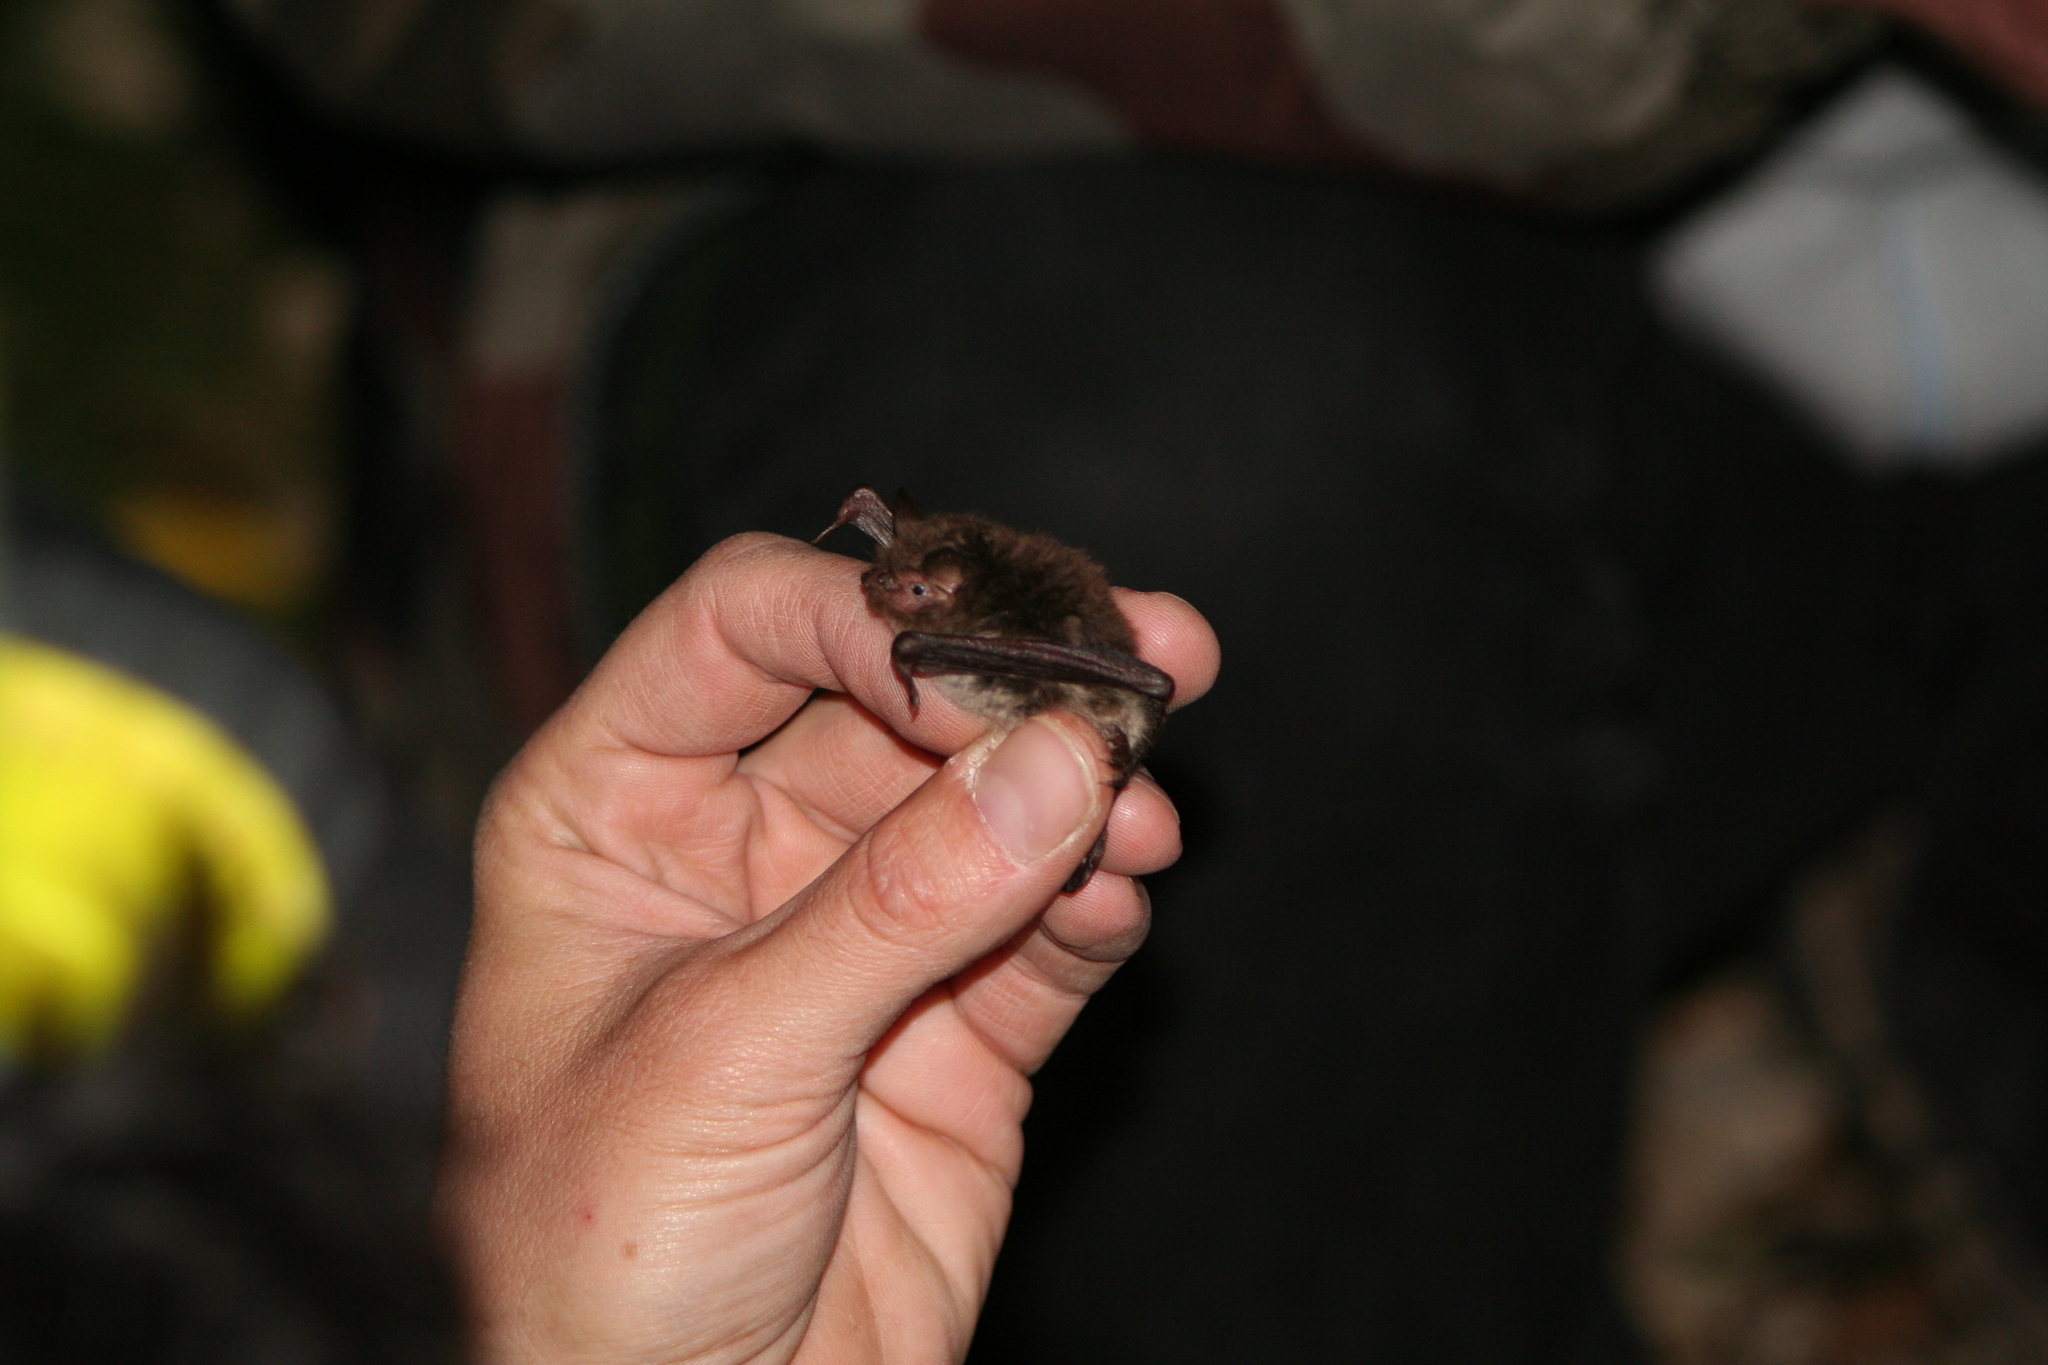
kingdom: Animalia
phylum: Chordata
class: Mammalia
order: Chiroptera
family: Vespertilionidae
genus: Myotis
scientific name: Myotis daubentonii
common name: Daubenton's myotis
